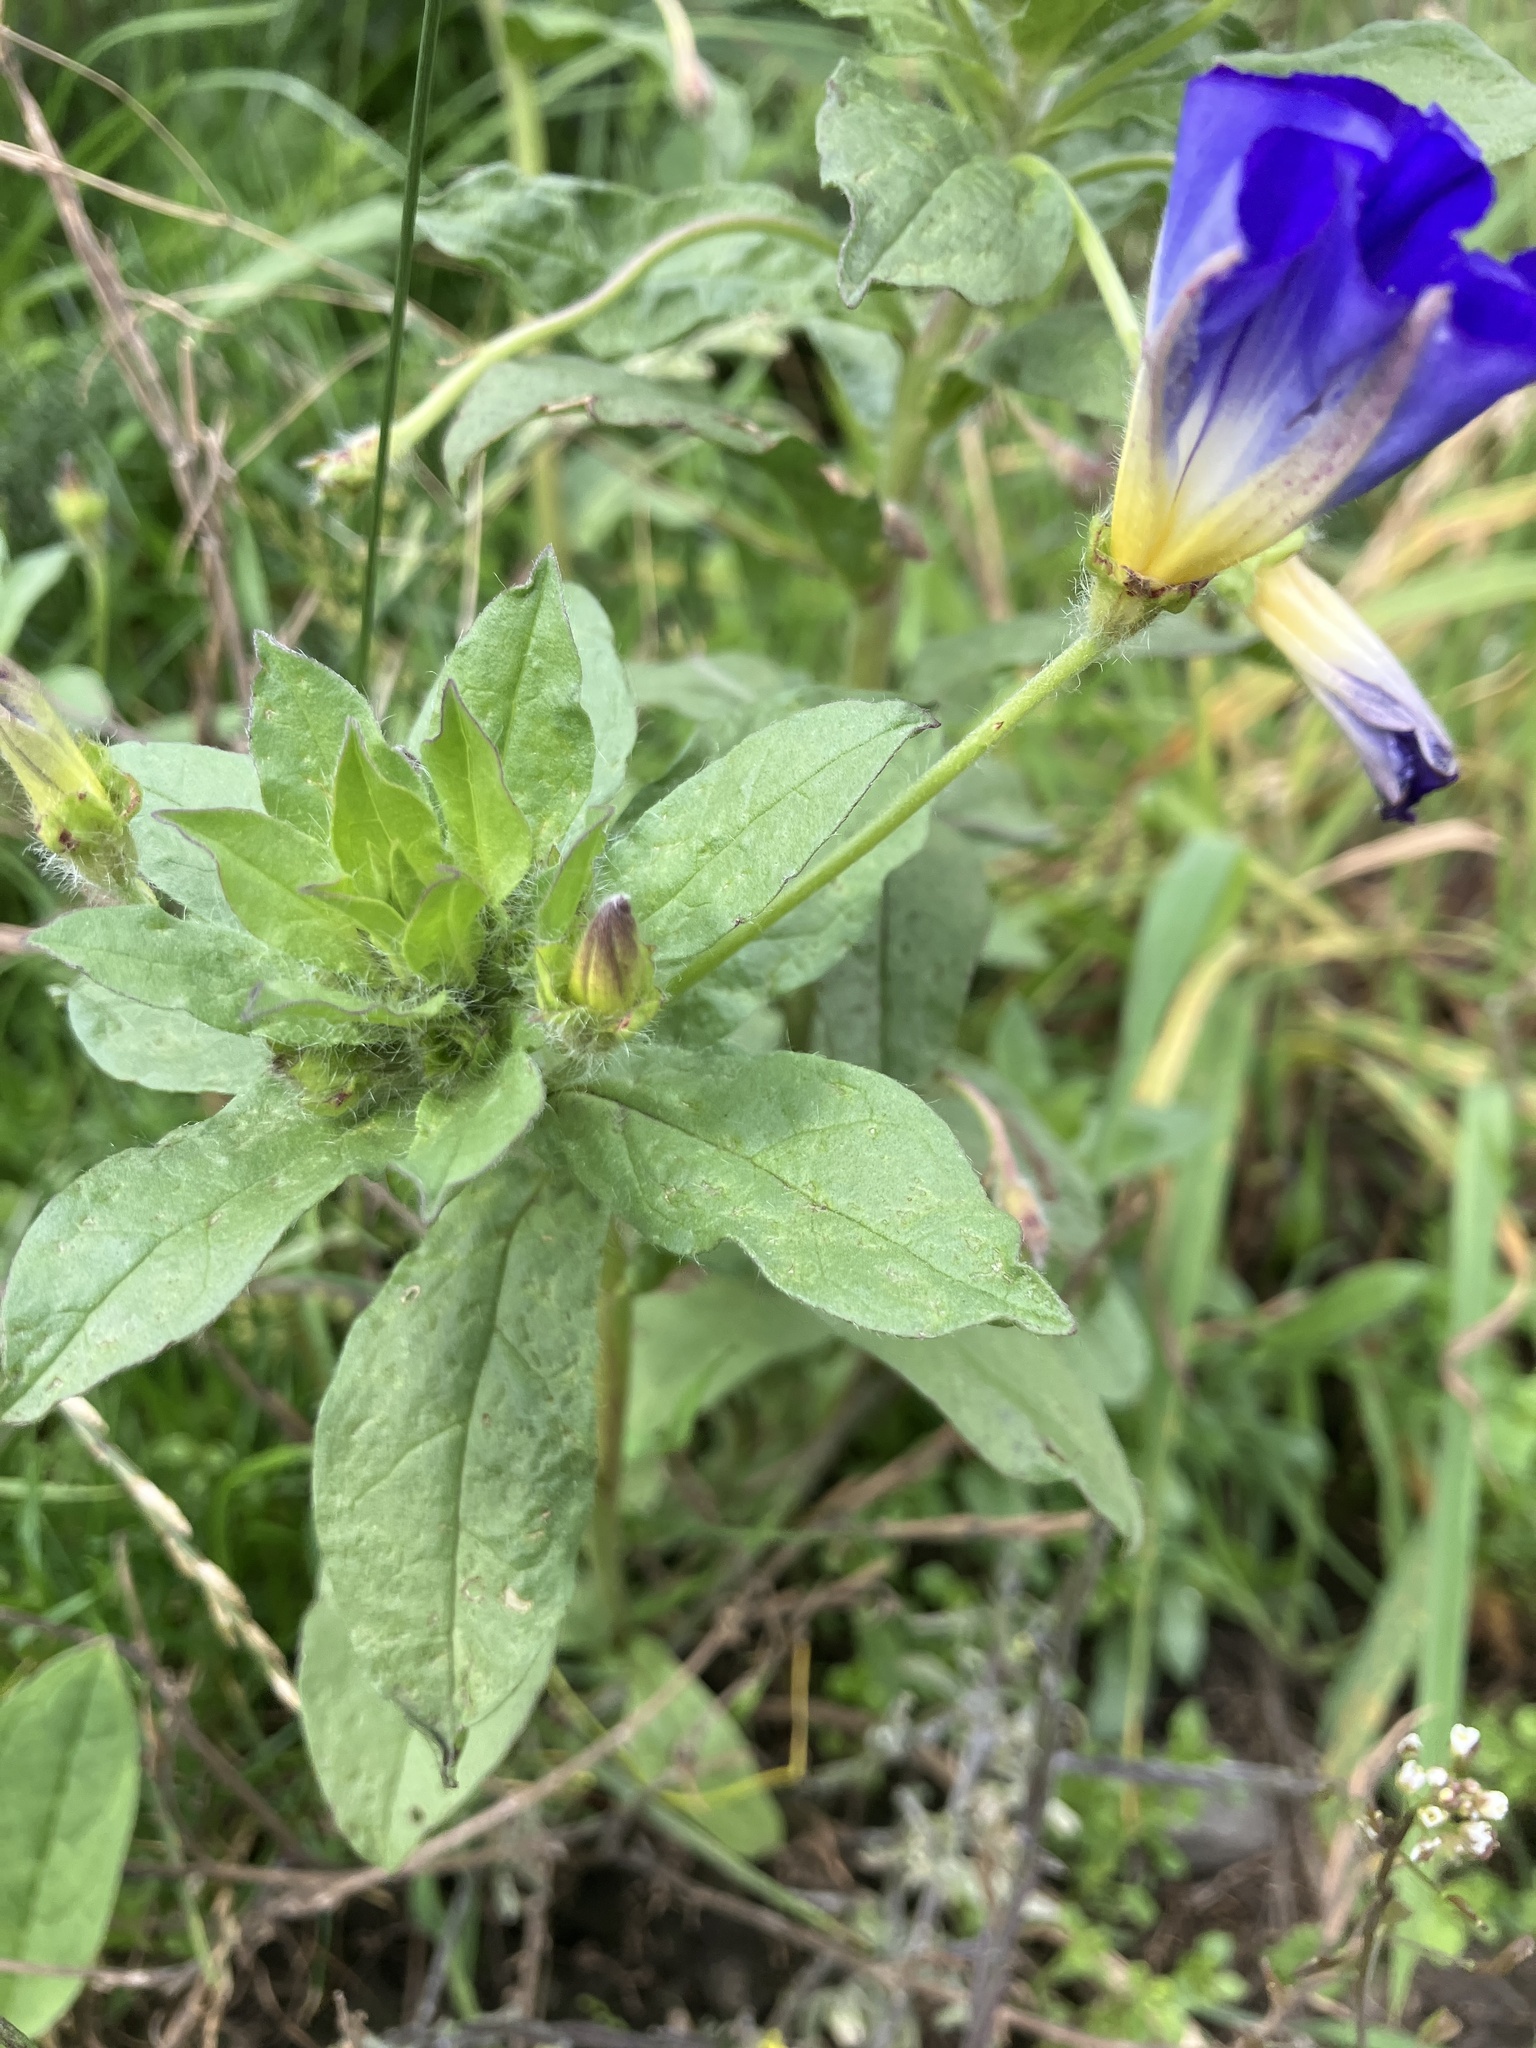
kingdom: Plantae
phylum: Tracheophyta
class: Magnoliopsida
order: Solanales
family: Convolvulaceae
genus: Convolvulus
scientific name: Convolvulus tricolor
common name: Dwarf morning-glory
